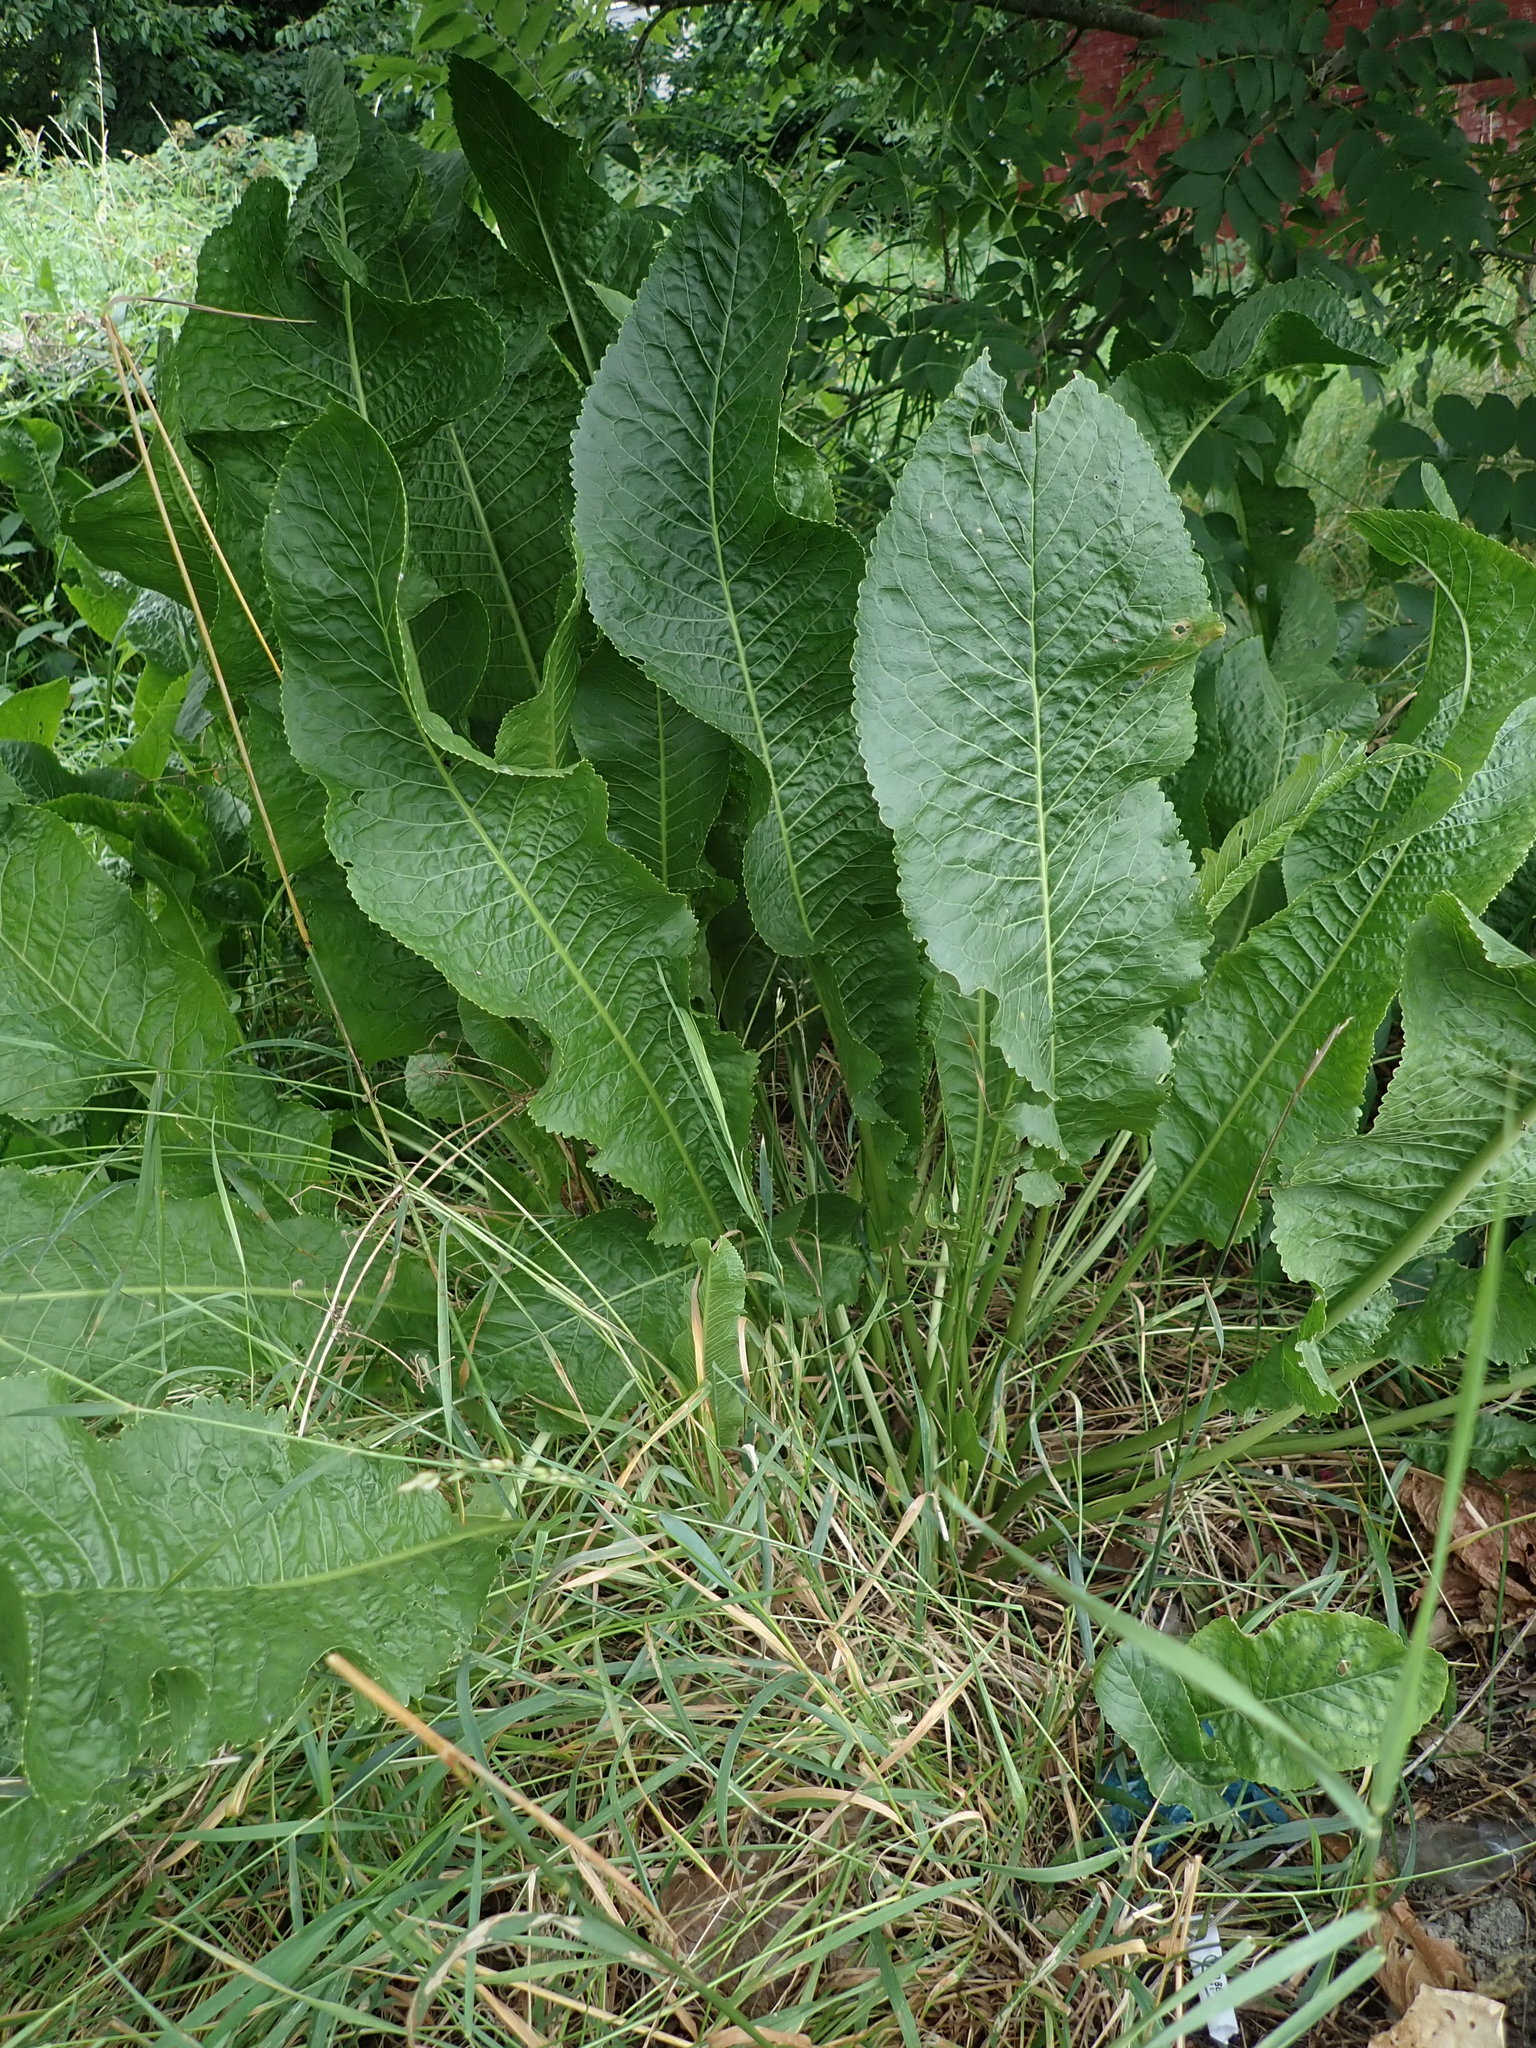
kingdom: Plantae
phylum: Tracheophyta
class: Magnoliopsida
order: Brassicales
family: Brassicaceae
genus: Armoracia
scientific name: Armoracia rusticana
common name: Horseradish
